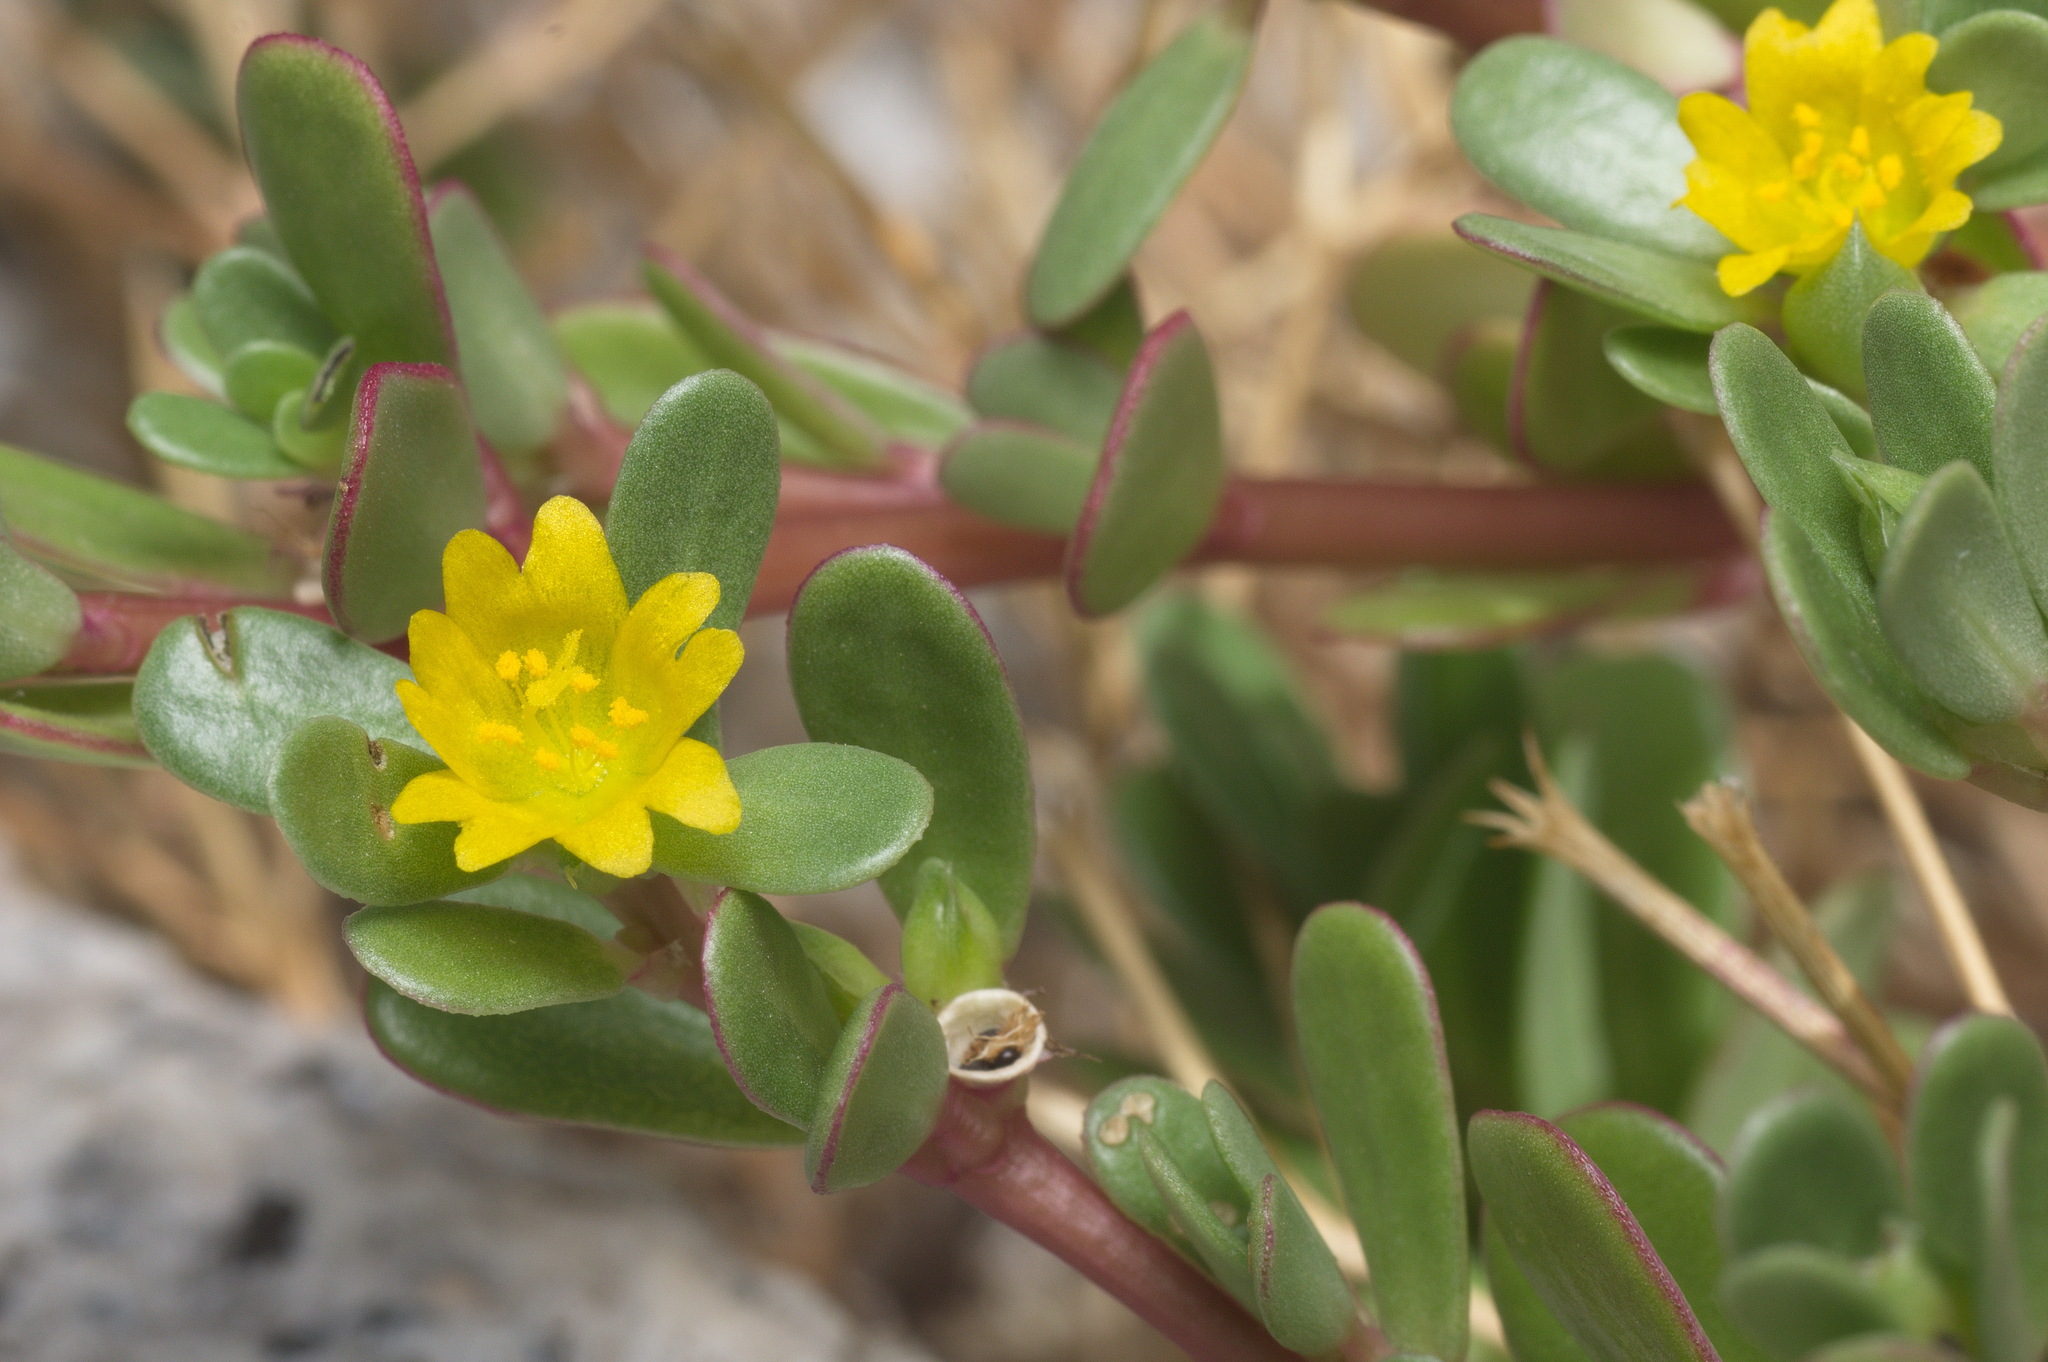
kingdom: Plantae
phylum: Tracheophyta
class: Magnoliopsida
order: Caryophyllales
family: Portulacaceae
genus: Portulaca
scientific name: Portulaca oleracea
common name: Common purslane
